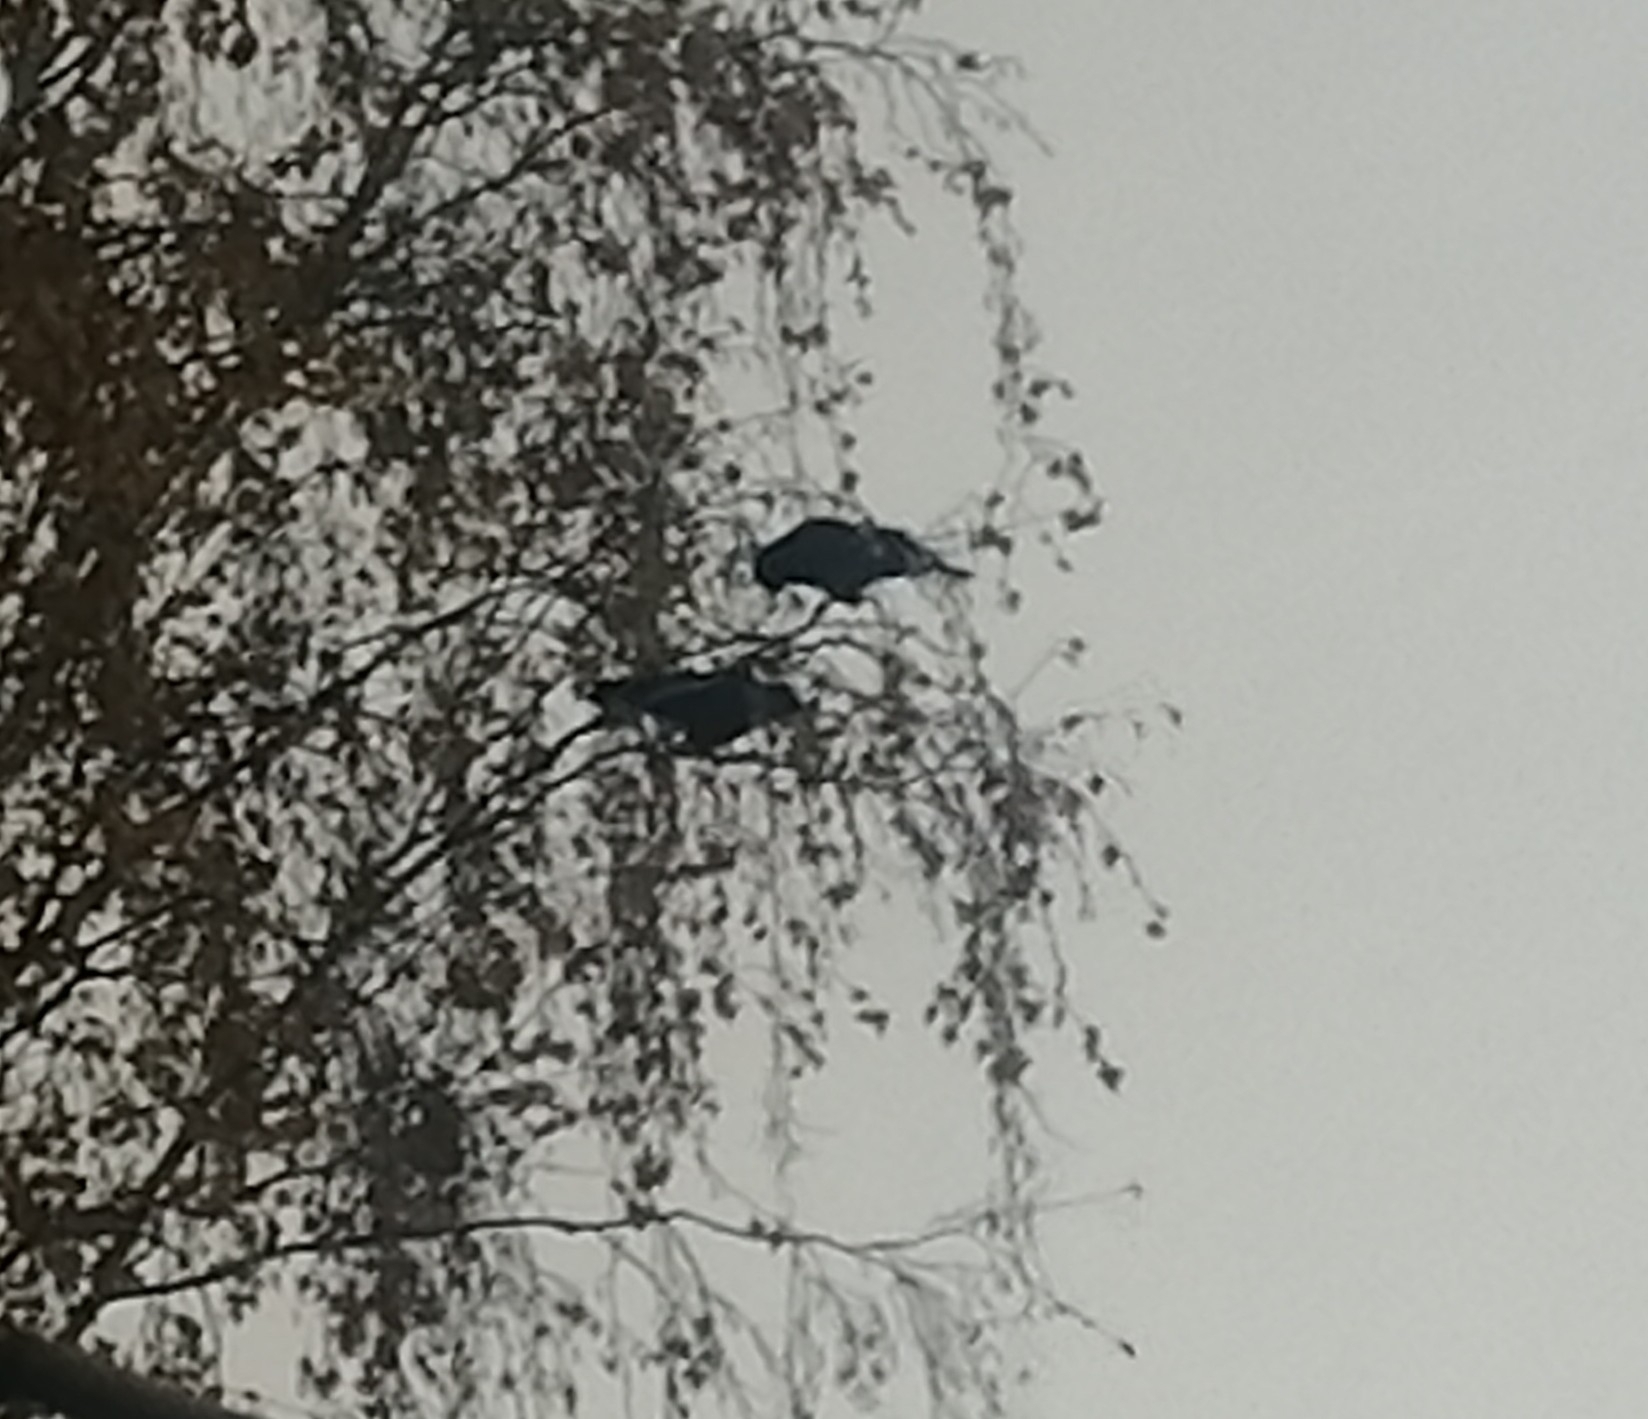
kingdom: Animalia
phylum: Chordata
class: Aves
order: Passeriformes
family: Corvidae
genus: Corvus
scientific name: Corvus frugilegus
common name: Rook
